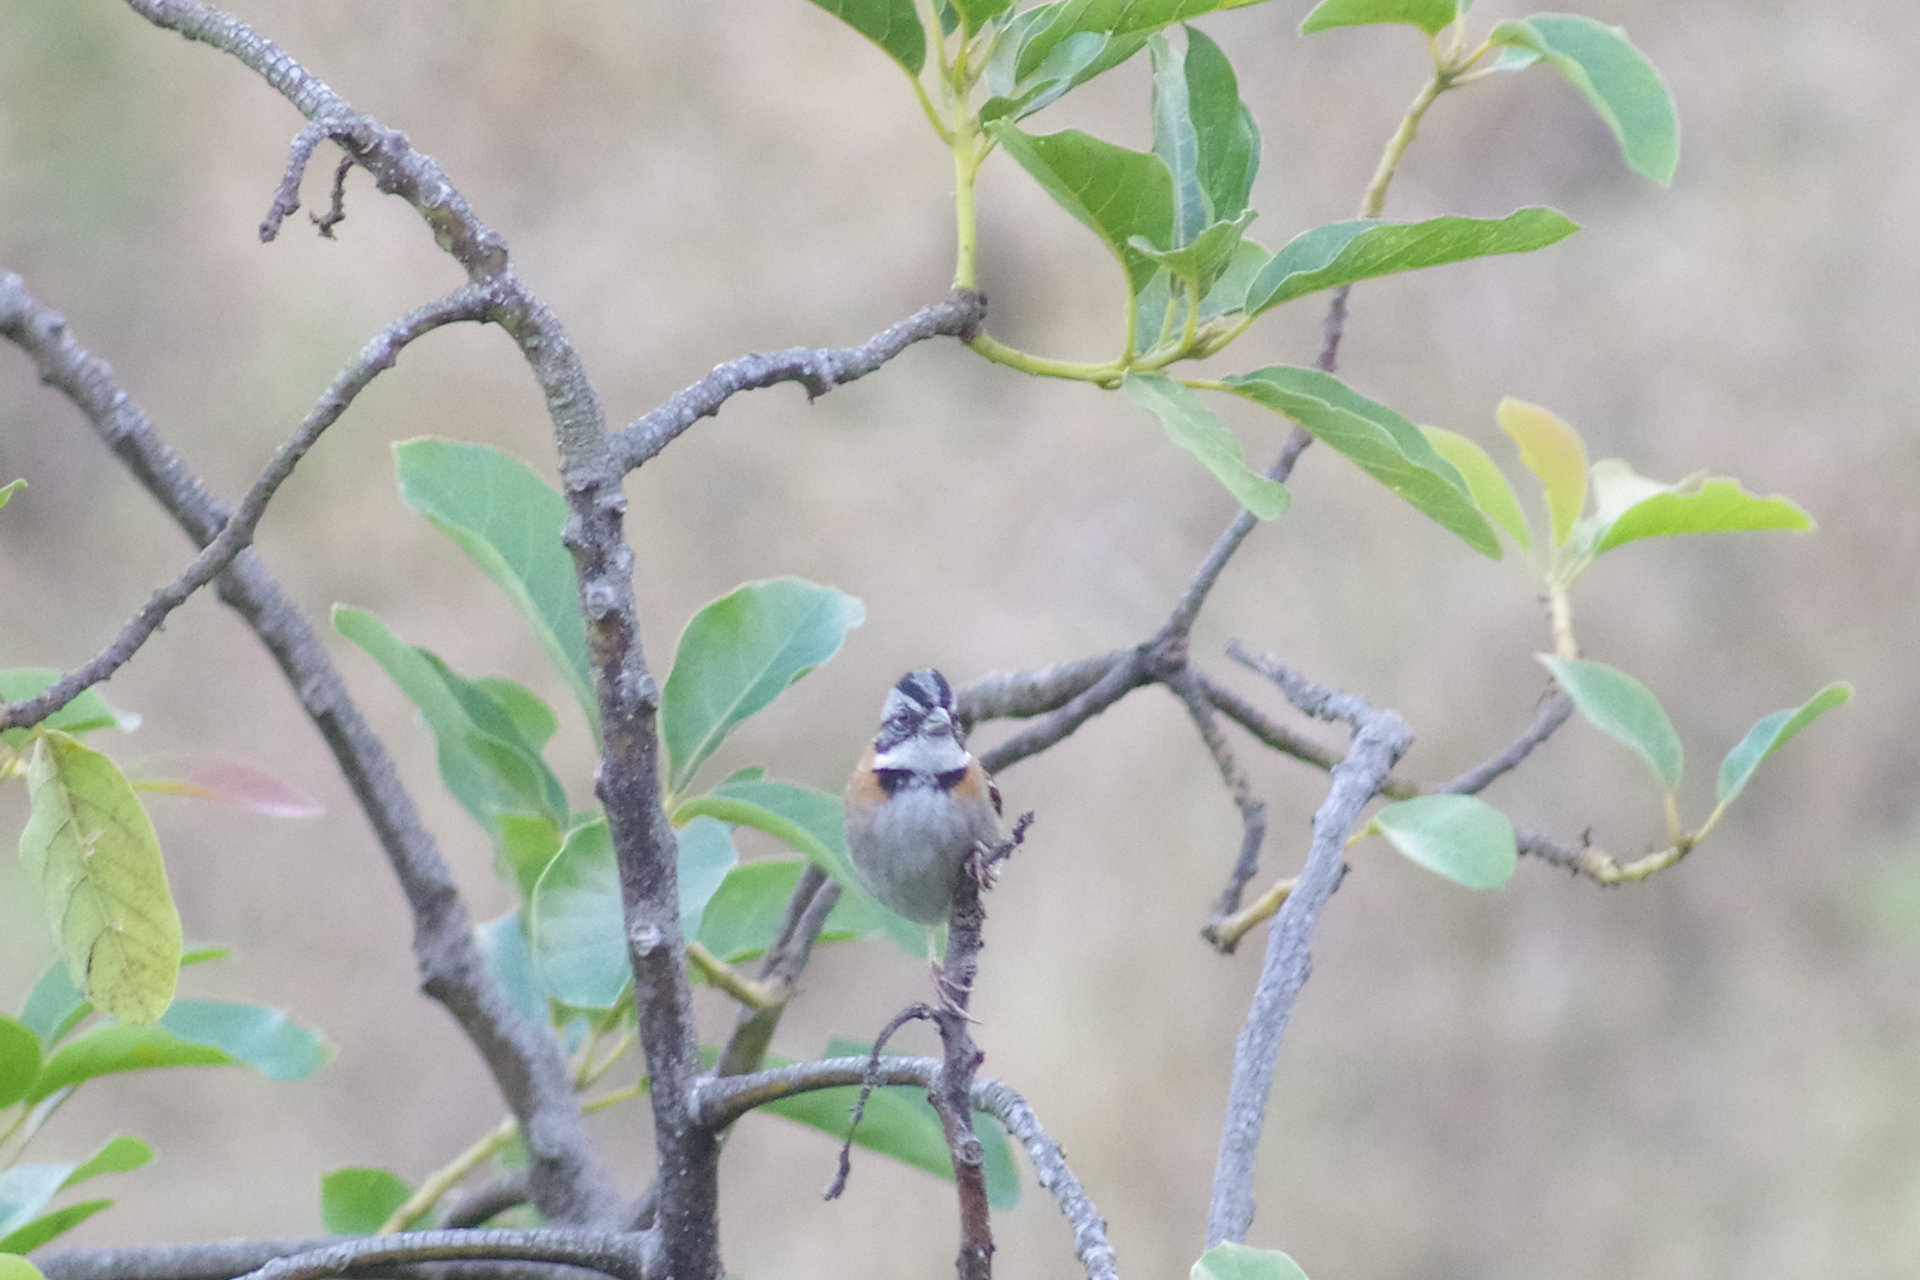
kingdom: Animalia
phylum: Chordata
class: Aves
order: Passeriformes
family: Passerellidae
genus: Zonotrichia
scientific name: Zonotrichia capensis
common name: Rufous-collared sparrow
